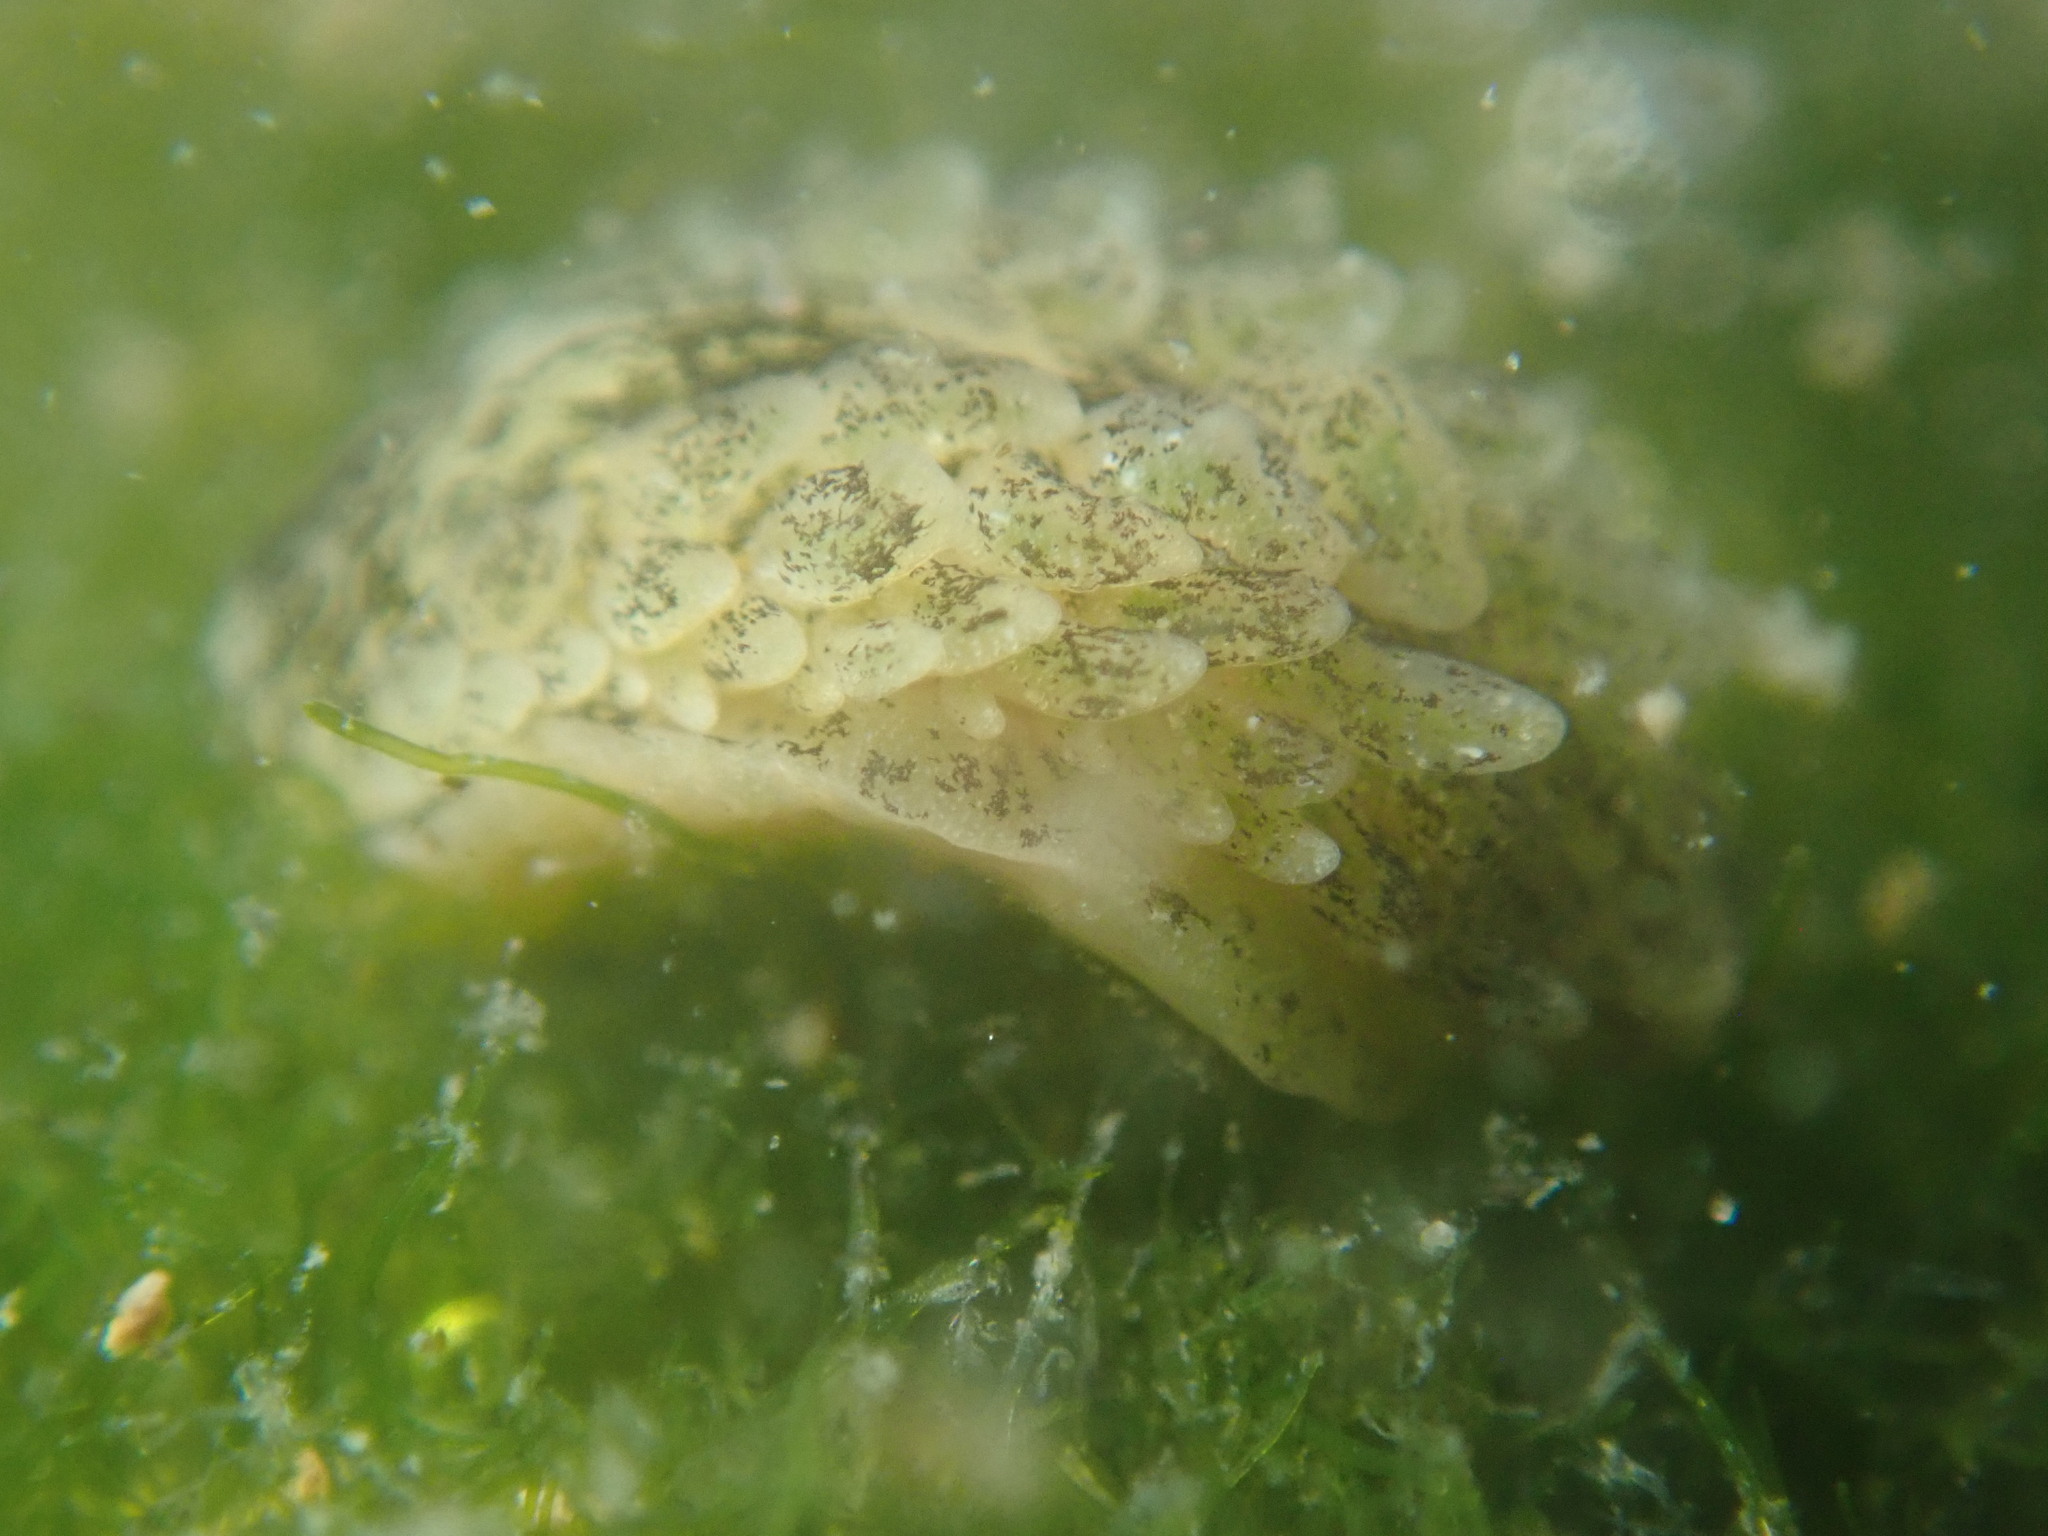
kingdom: Animalia
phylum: Mollusca
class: Gastropoda
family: Limapontiidae
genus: Alderia
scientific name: Alderia modesta
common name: Modest alderia
